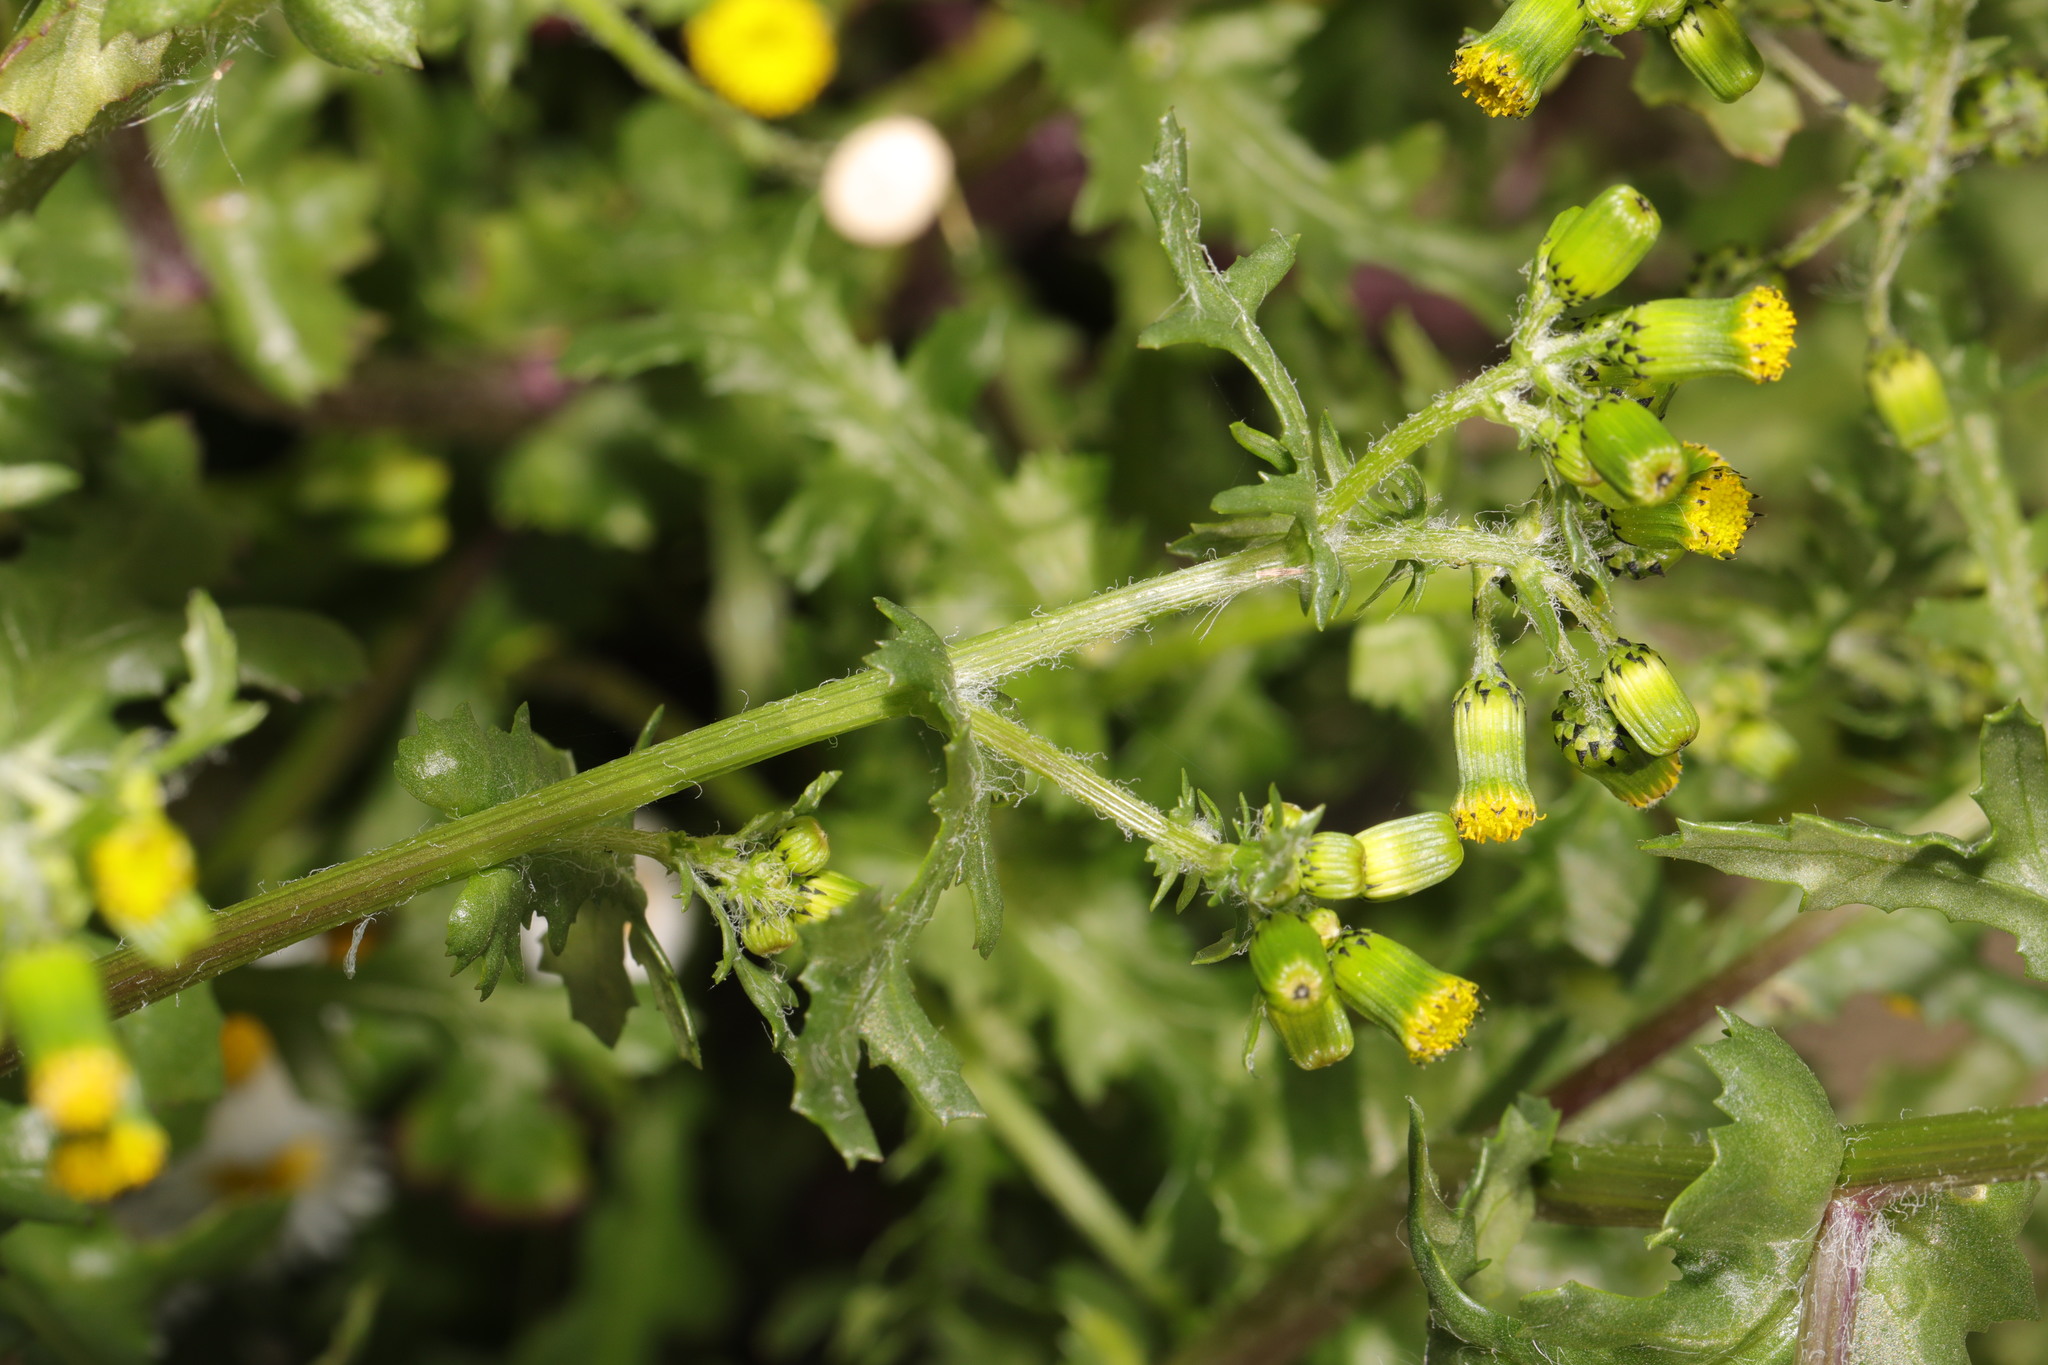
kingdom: Plantae
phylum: Tracheophyta
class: Magnoliopsida
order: Asterales
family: Asteraceae
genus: Senecio
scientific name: Senecio vulgaris
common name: Old-man-in-the-spring
